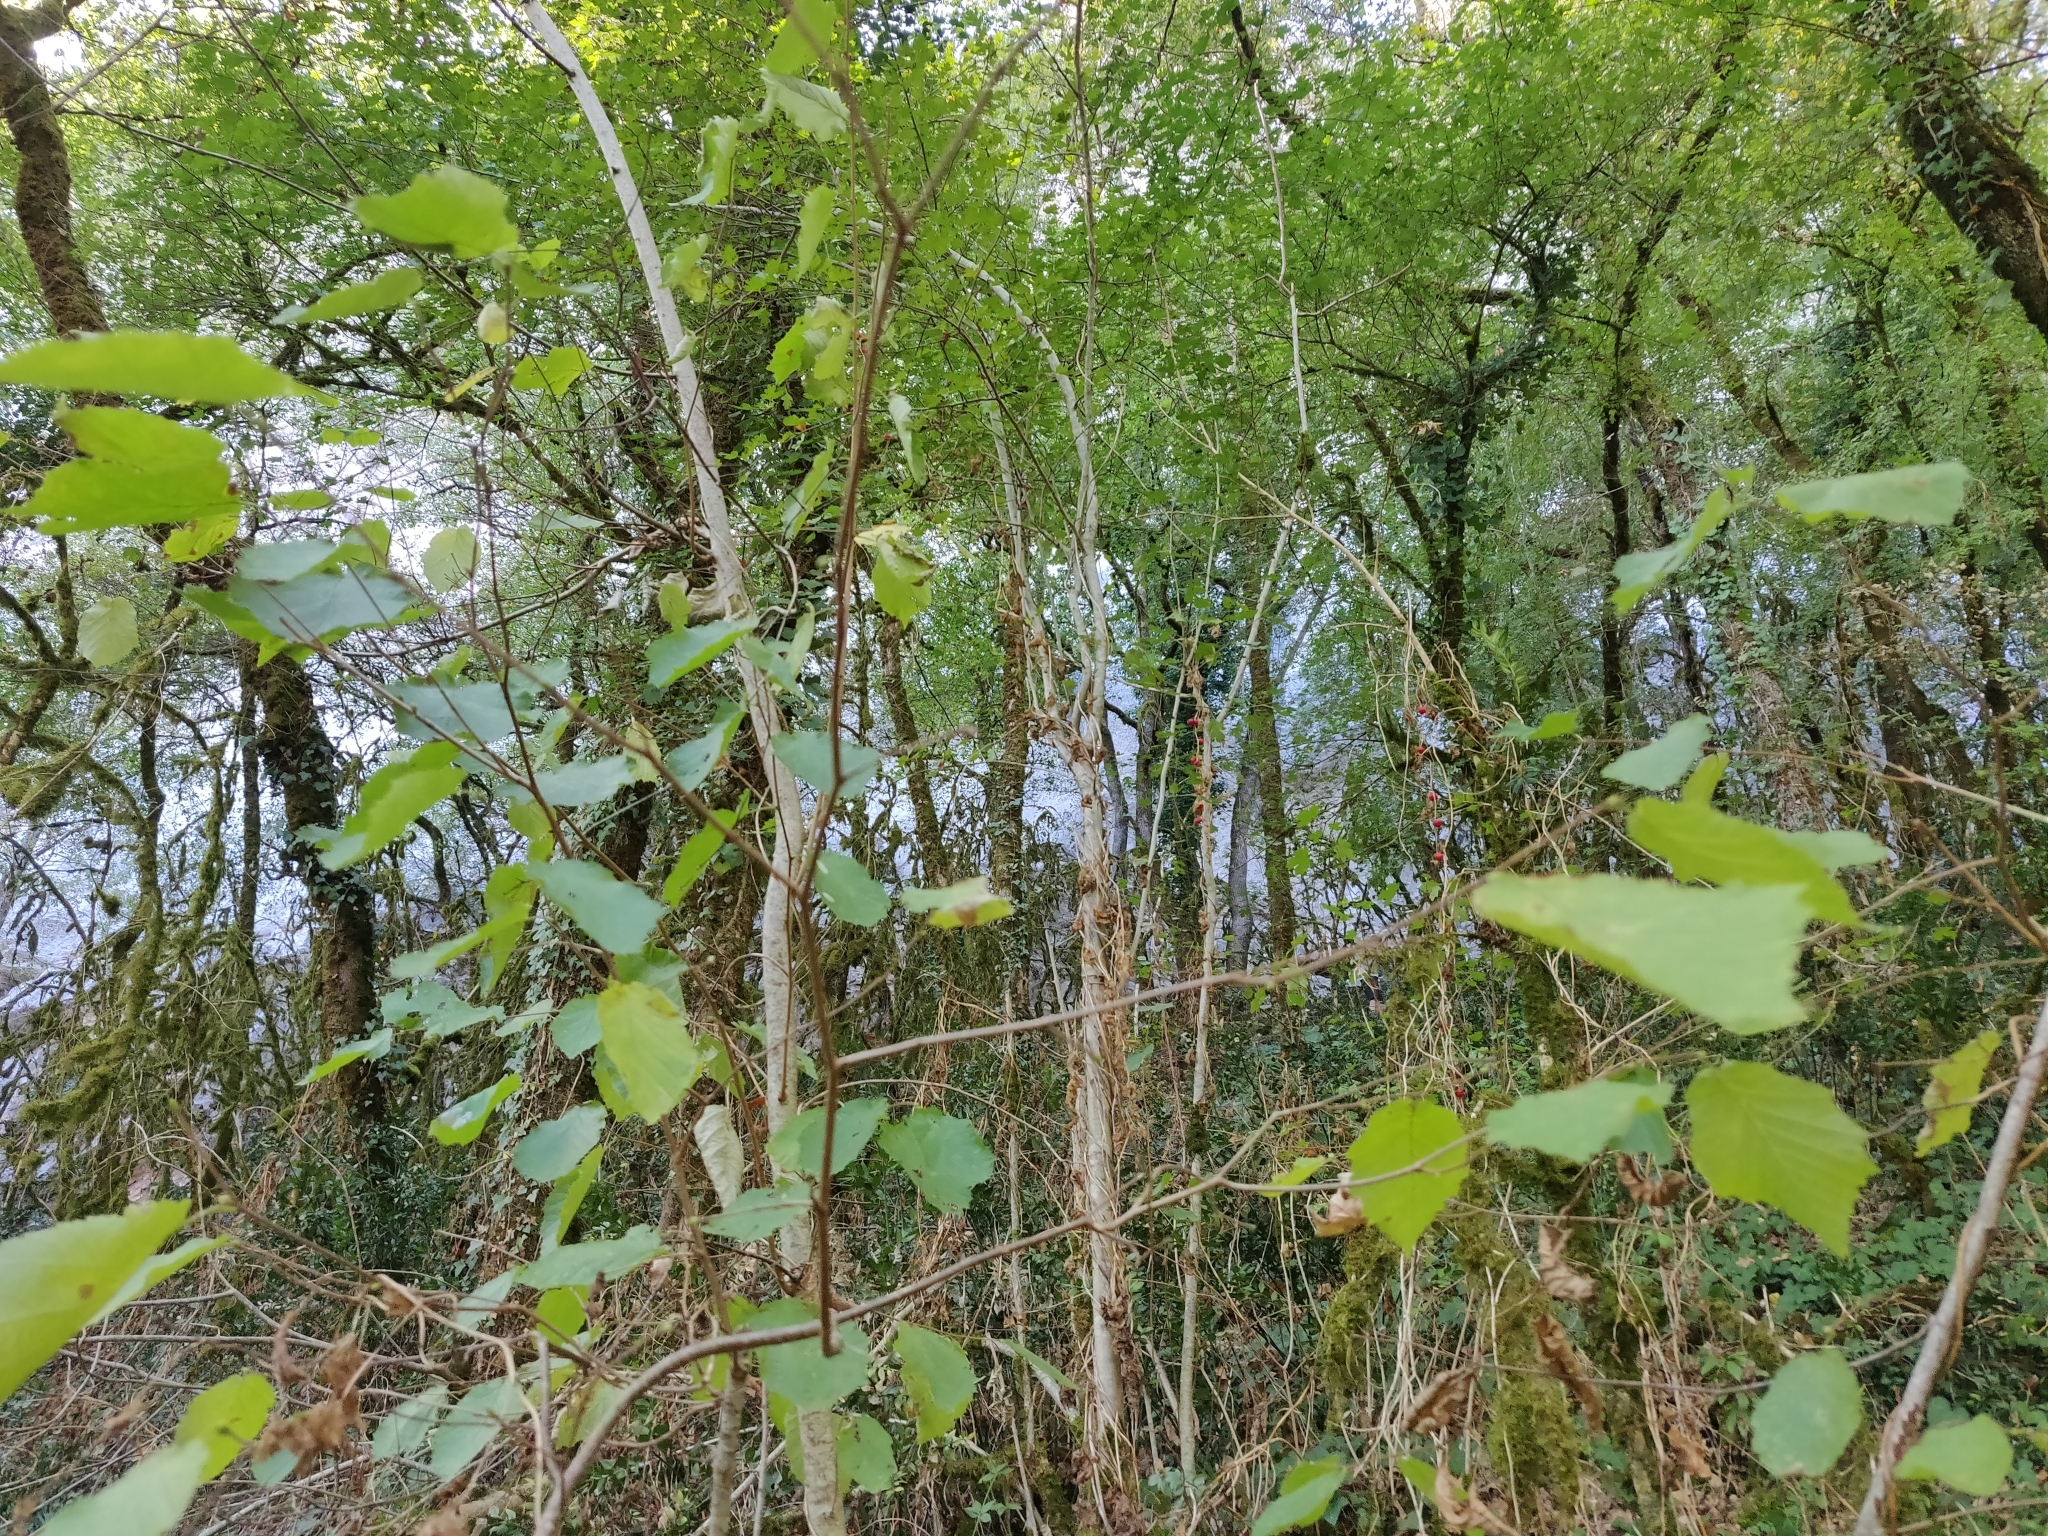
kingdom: Plantae
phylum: Tracheophyta
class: Magnoliopsida
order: Cucurbitales
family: Cucurbitaceae
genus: Bryonia
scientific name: Bryonia cretica
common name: Cretan bryony
